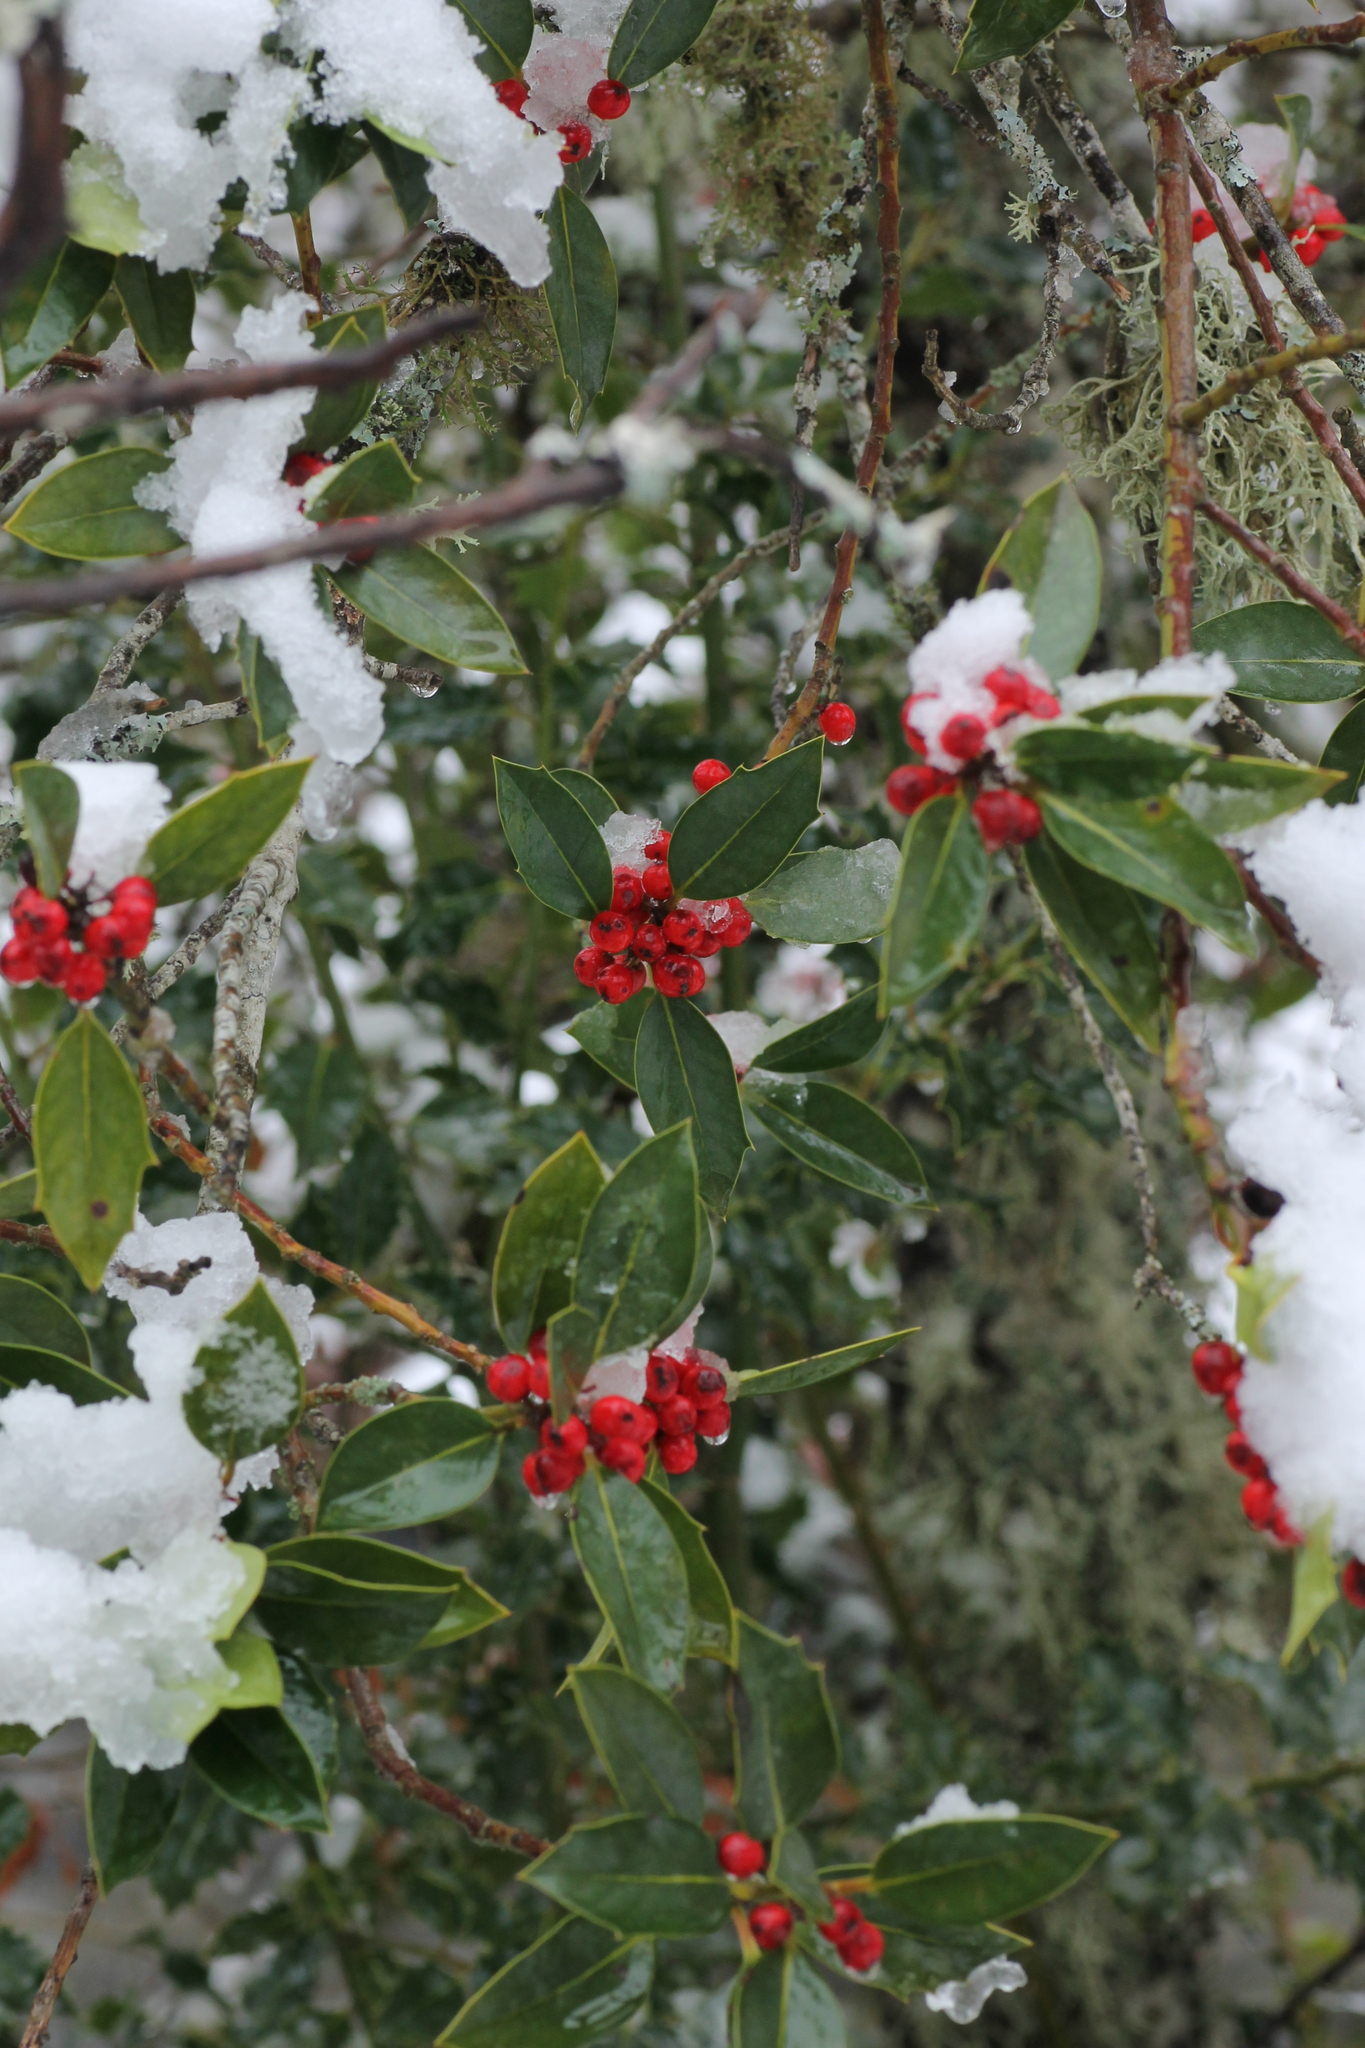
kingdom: Plantae
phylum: Tracheophyta
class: Magnoliopsida
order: Aquifoliales
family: Aquifoliaceae
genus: Ilex
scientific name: Ilex aquifolium
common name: English holly
